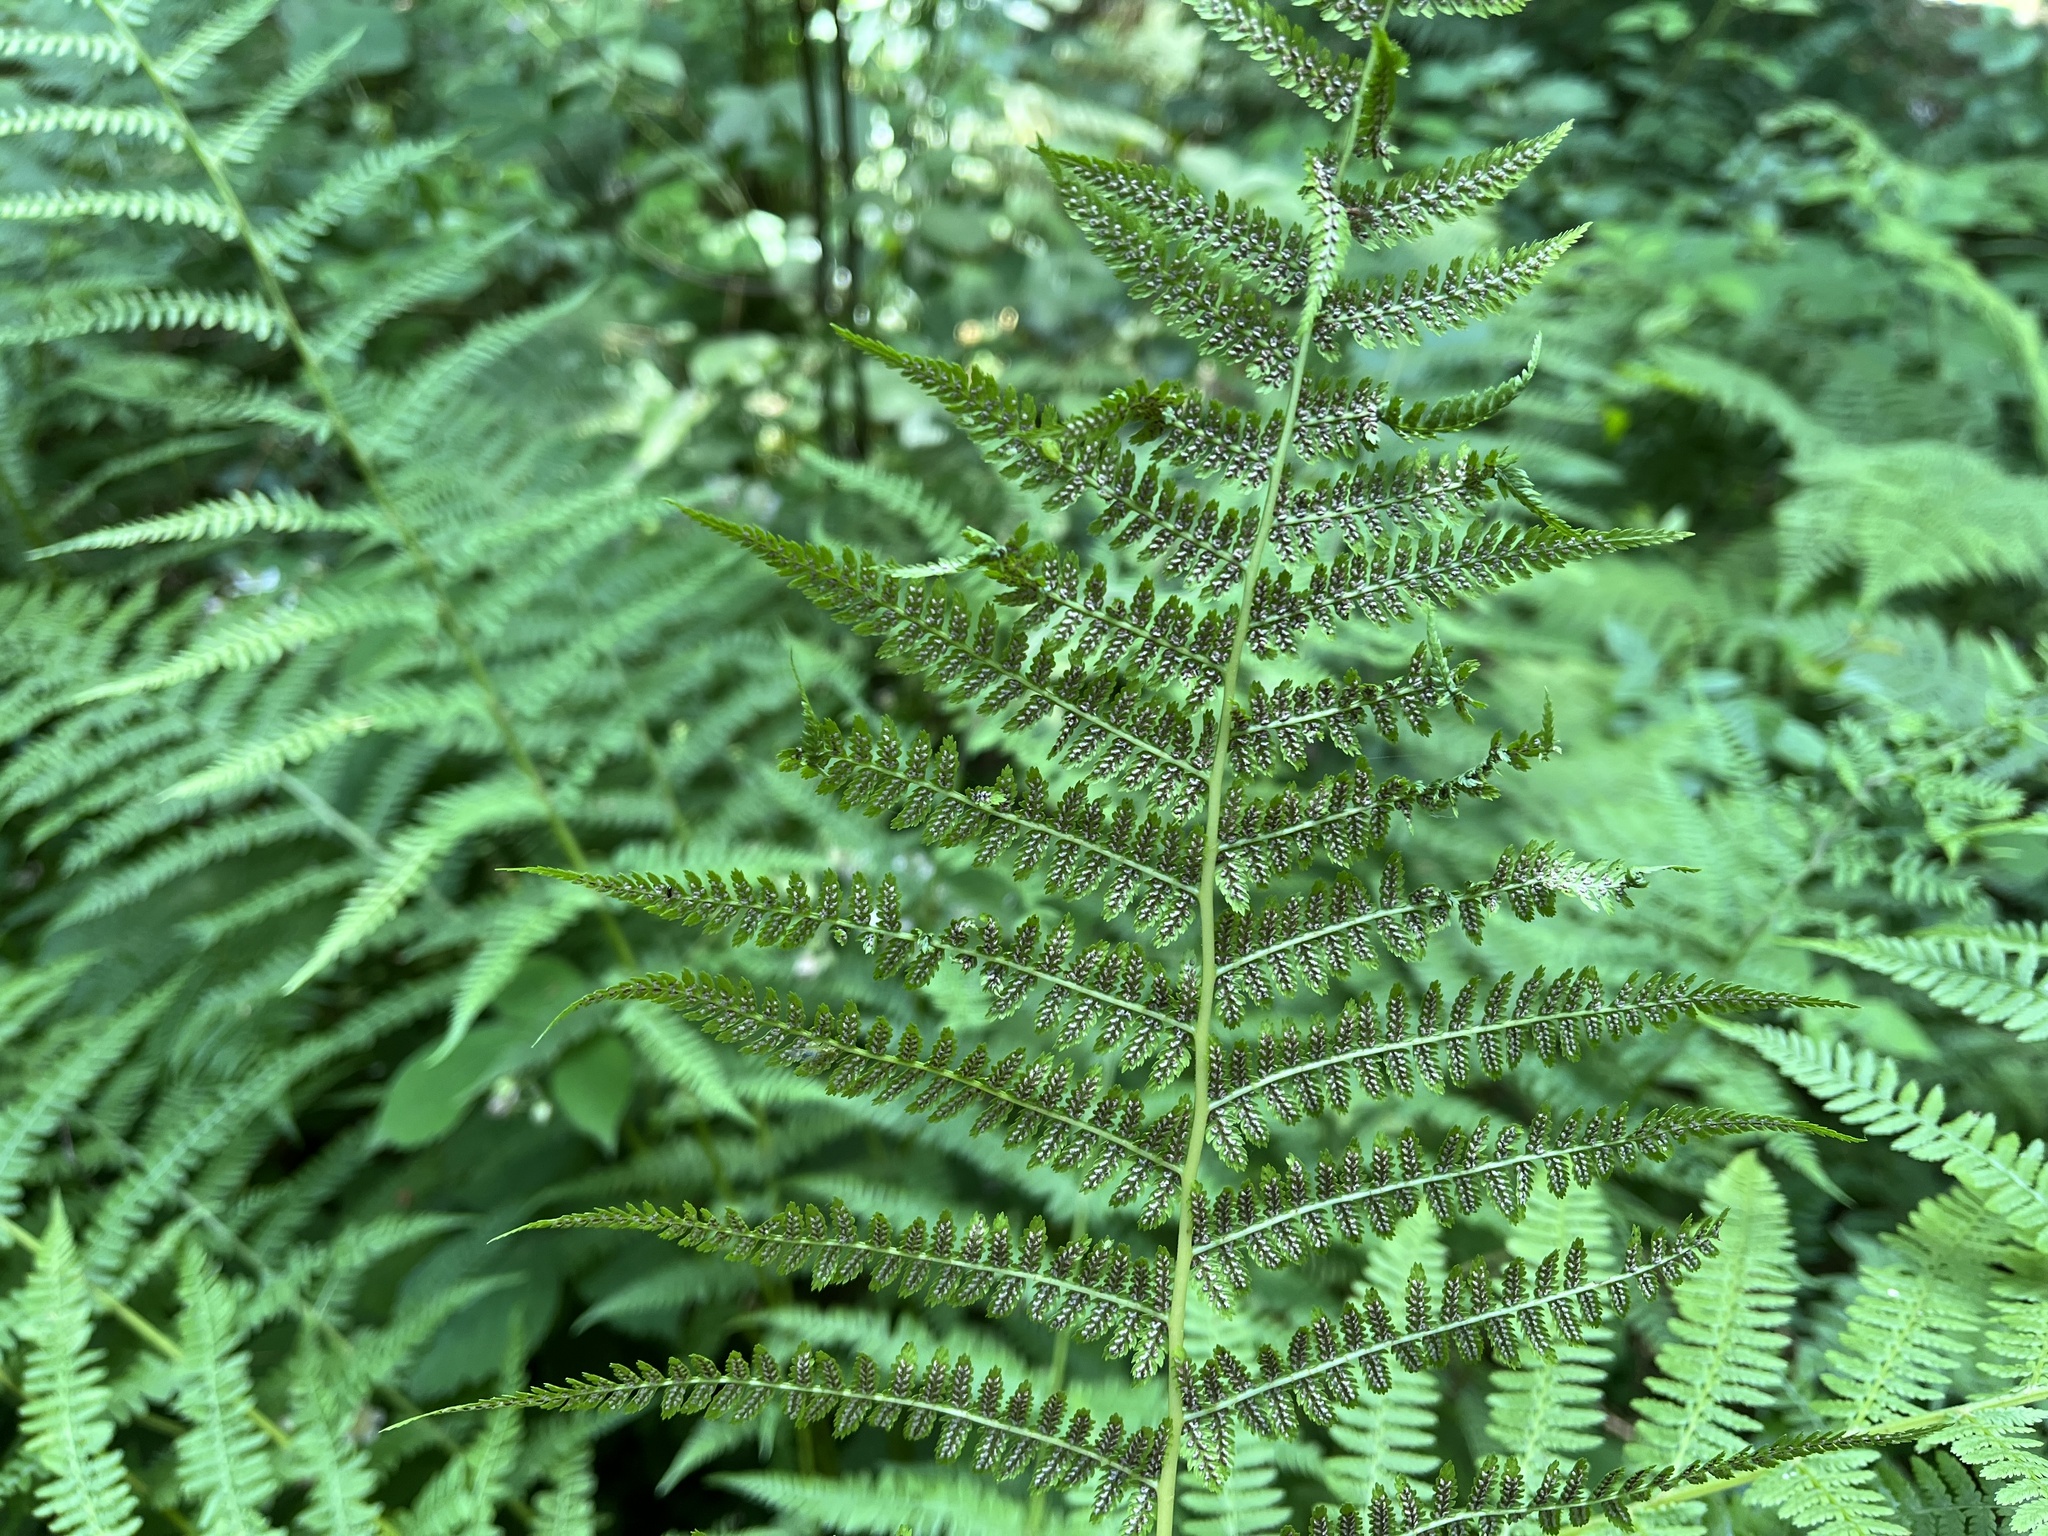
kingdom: Plantae
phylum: Tracheophyta
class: Polypodiopsida
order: Polypodiales
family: Athyriaceae
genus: Athyrium
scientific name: Athyrium filix-femina
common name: Lady fern
